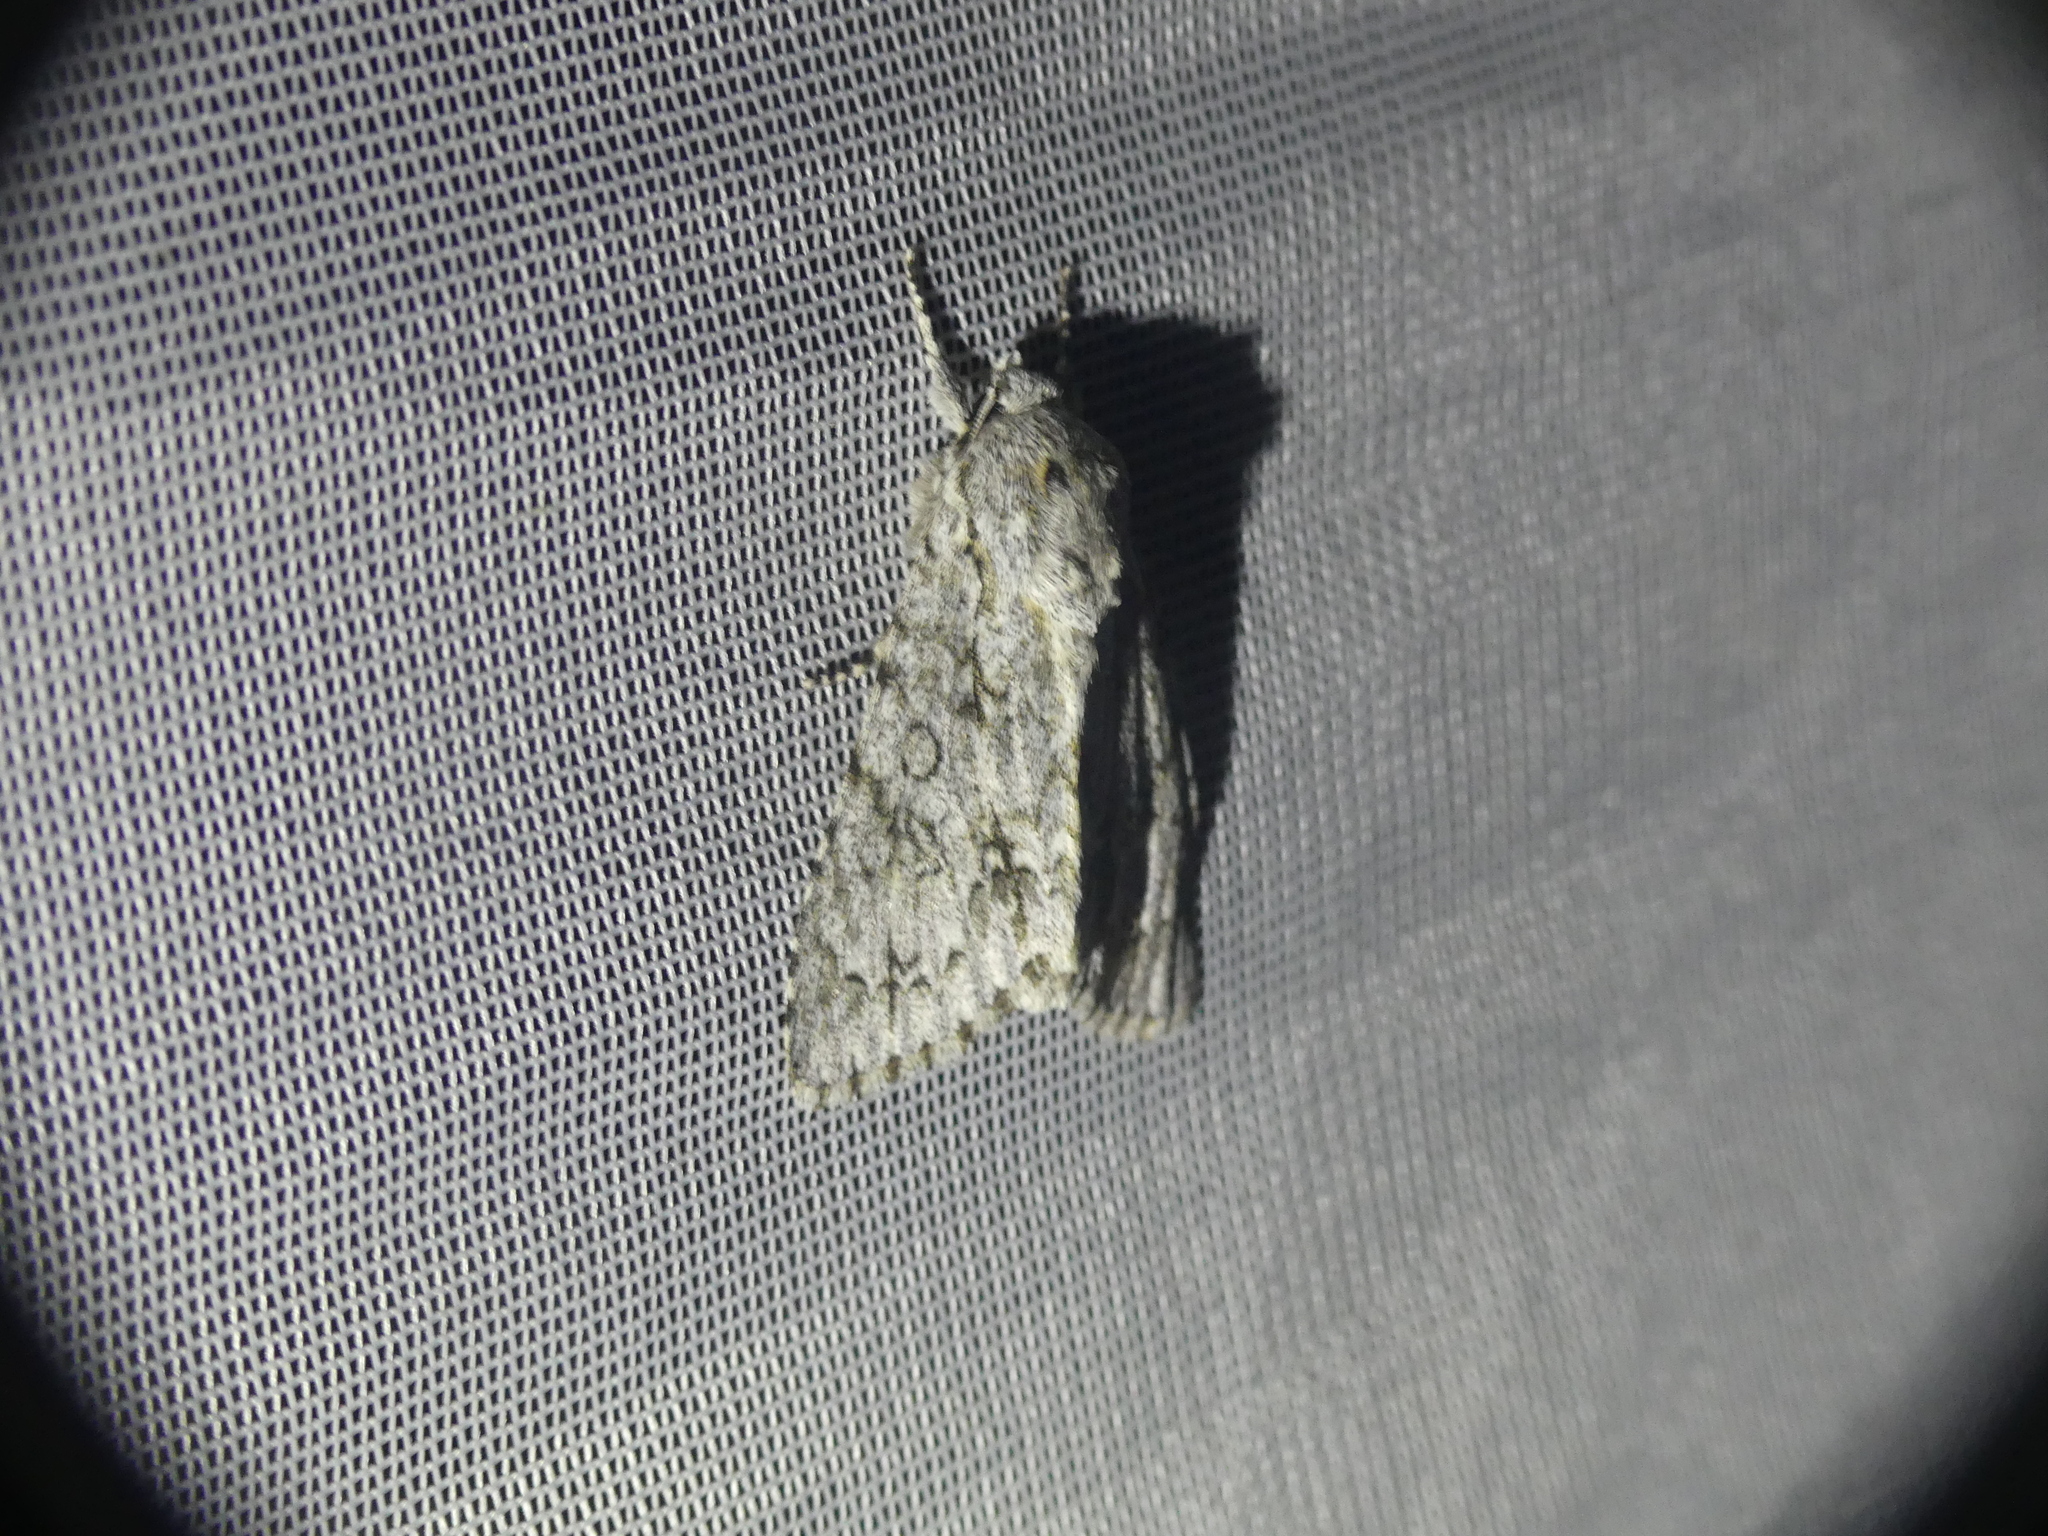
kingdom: Animalia
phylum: Arthropoda
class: Insecta
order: Lepidoptera
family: Noctuidae
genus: Acronicta
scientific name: Acronicta aceris
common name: Sycamore
